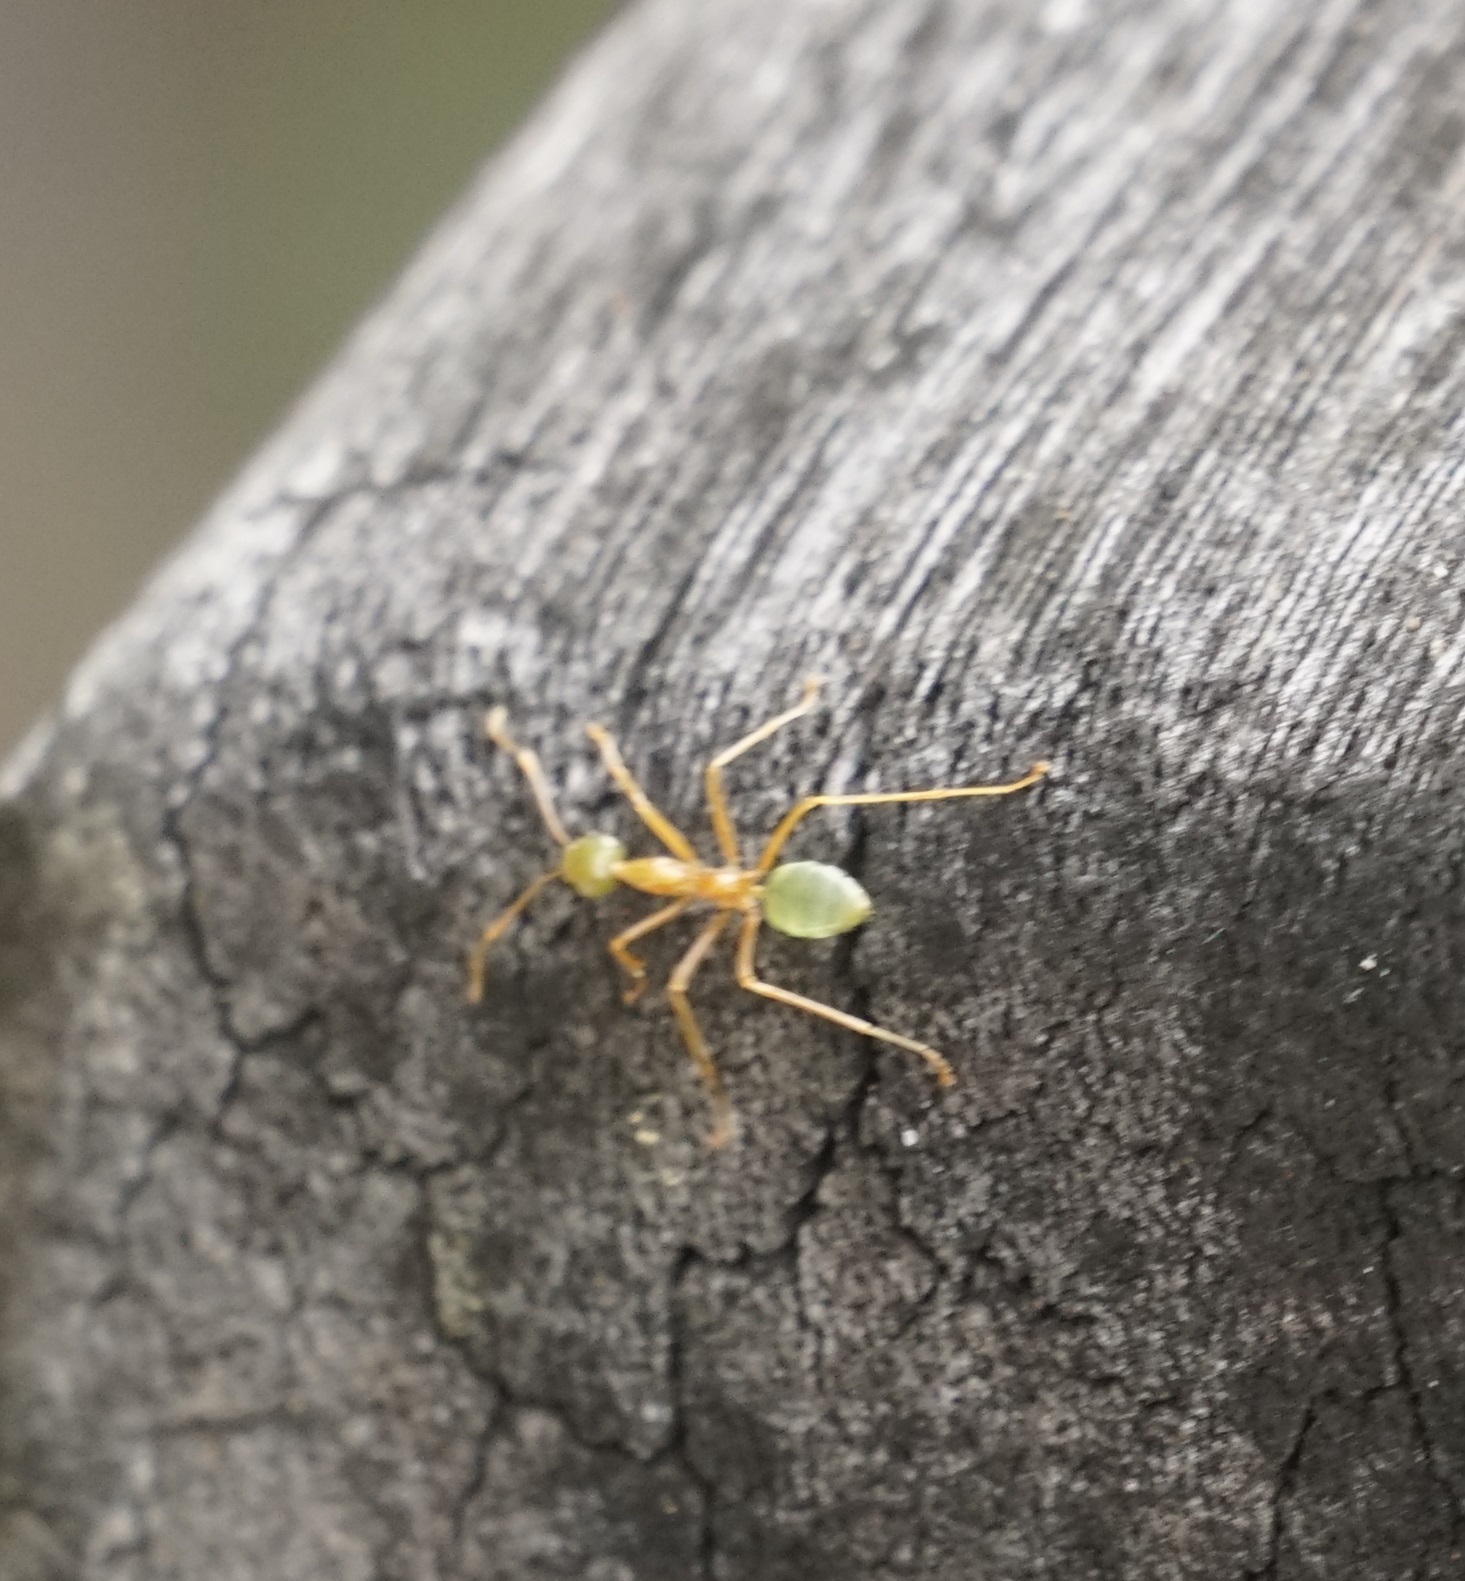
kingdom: Animalia
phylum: Arthropoda
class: Insecta
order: Hymenoptera
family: Formicidae
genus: Oecophylla
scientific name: Oecophylla smaragdina
